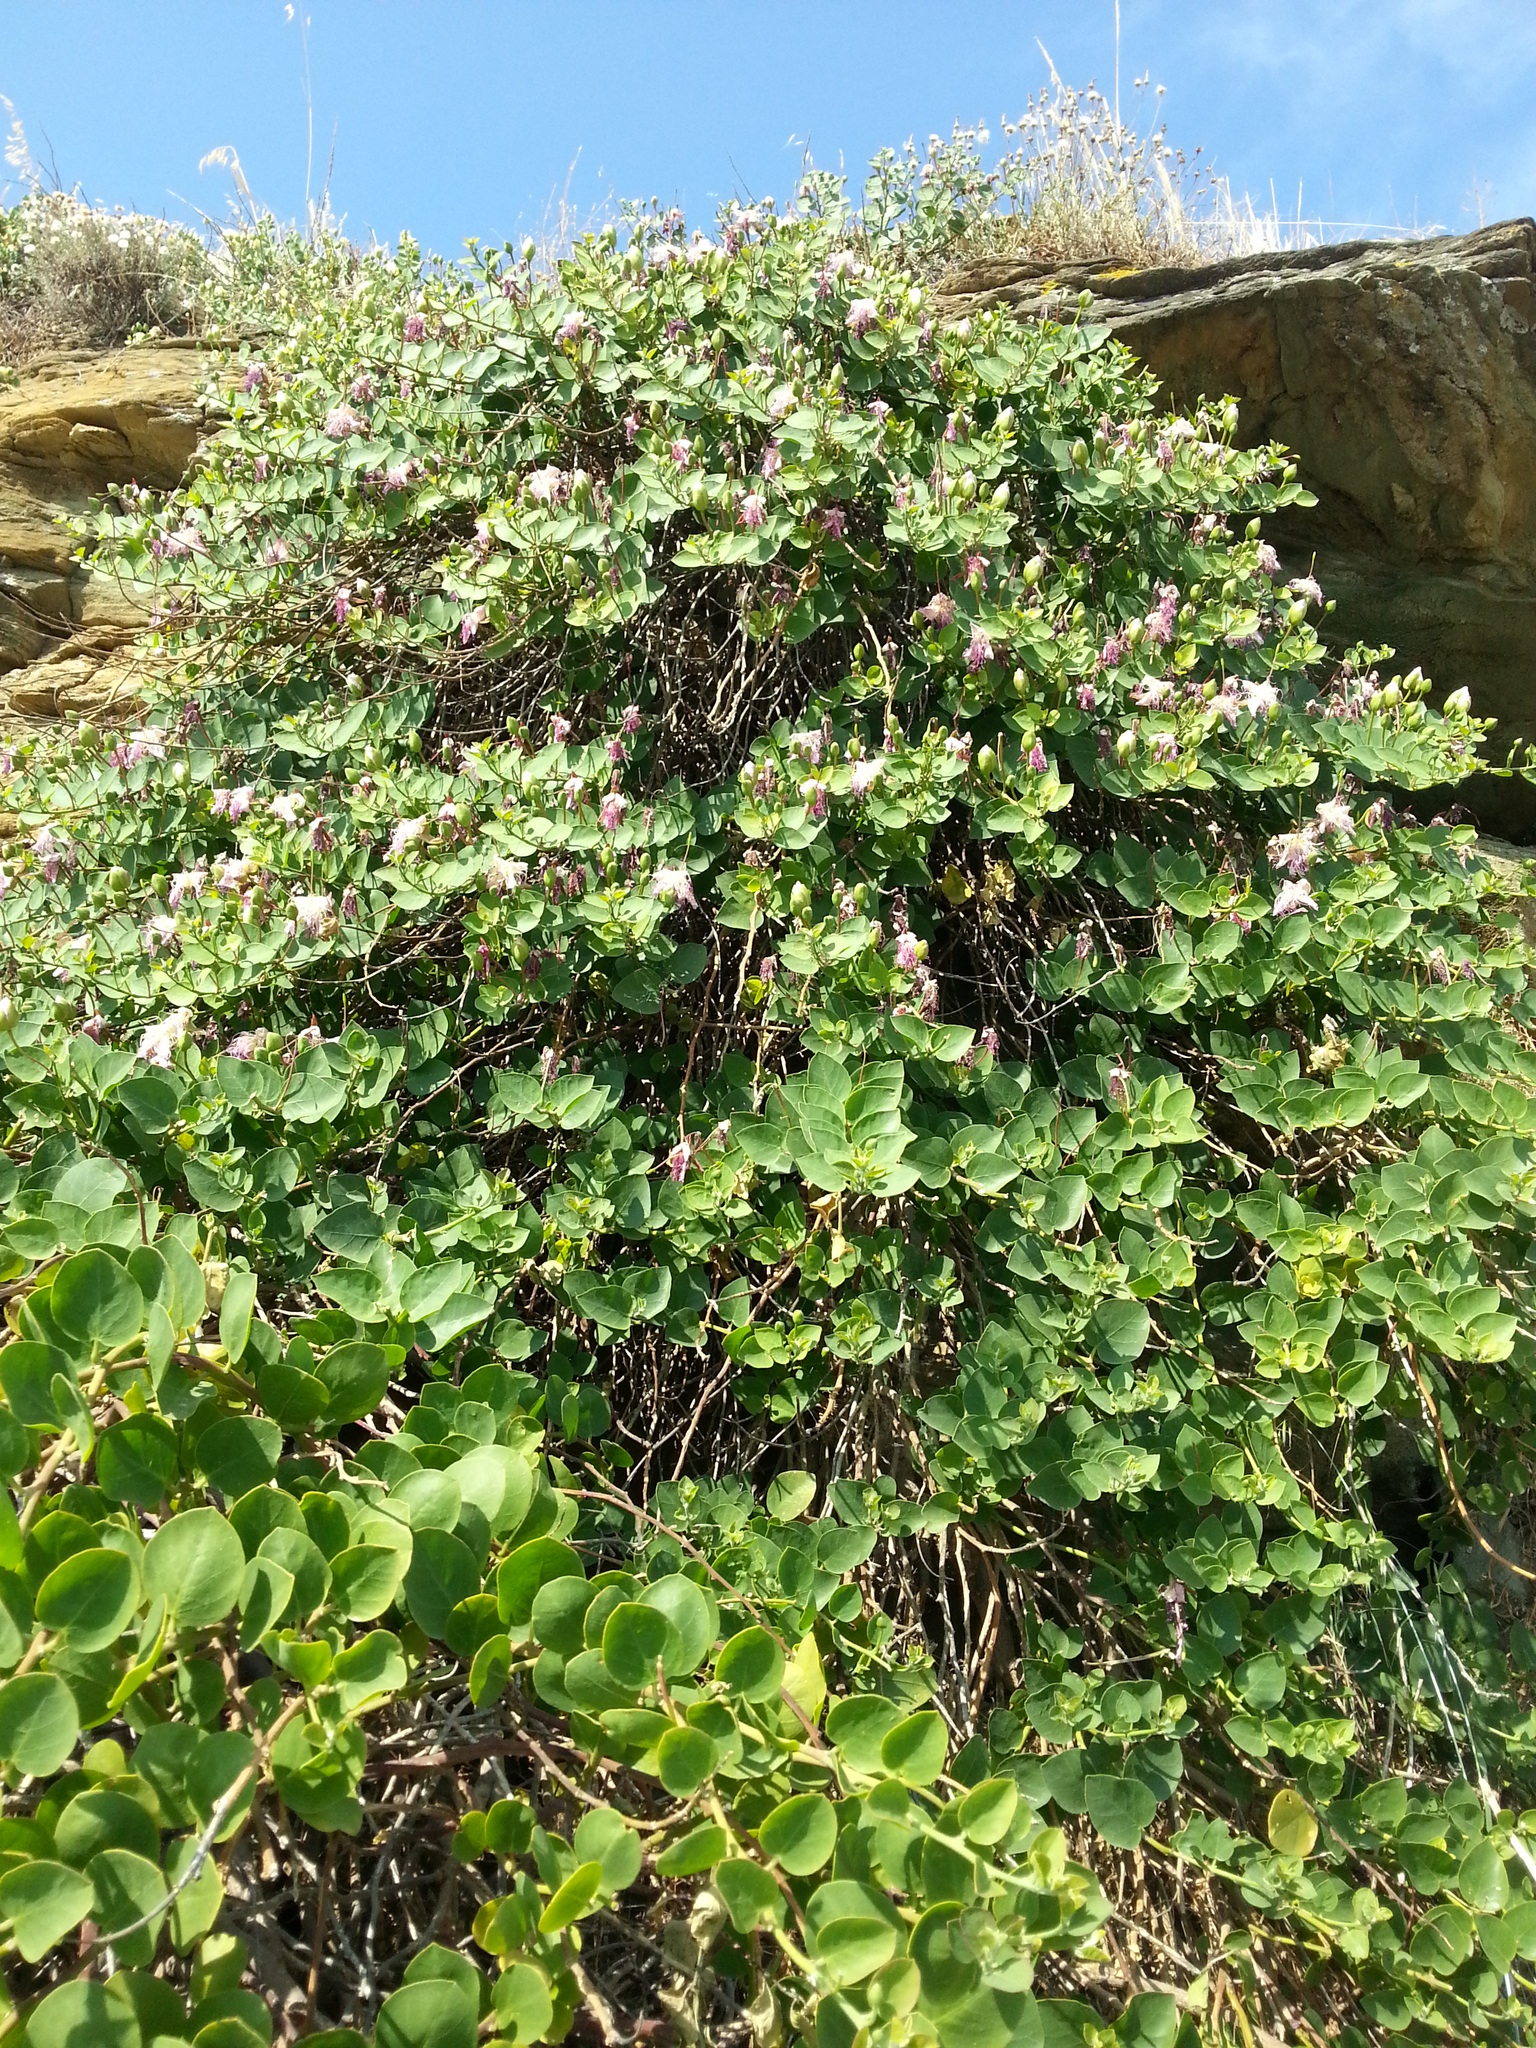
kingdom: Plantae
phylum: Tracheophyta
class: Magnoliopsida
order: Brassicales
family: Capparaceae
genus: Capparis
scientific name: Capparis orientalis
